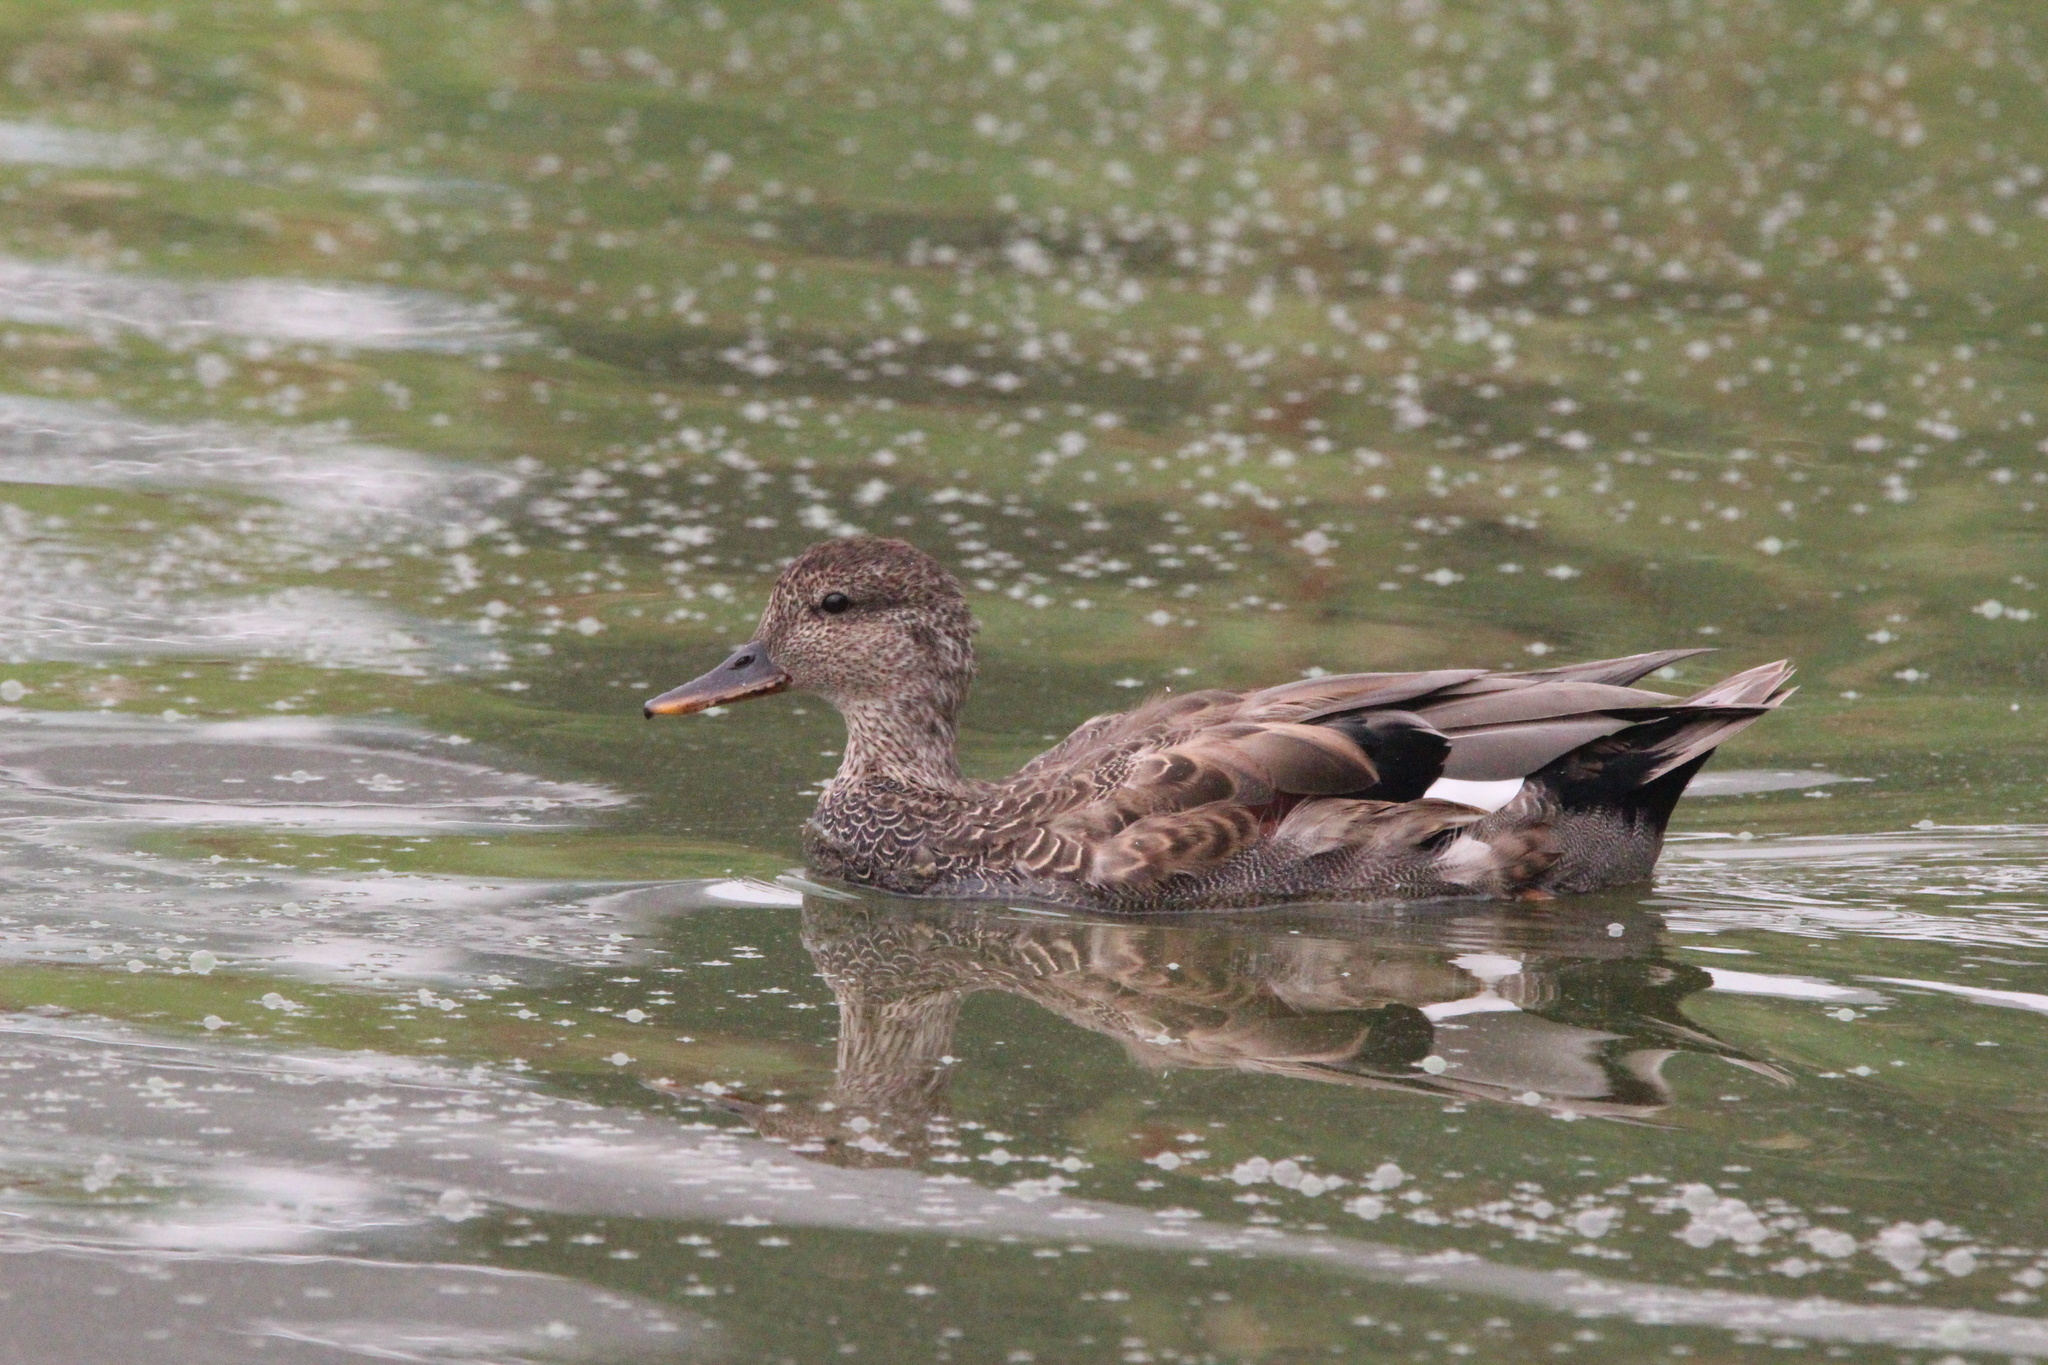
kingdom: Animalia
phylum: Chordata
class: Aves
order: Anseriformes
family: Anatidae
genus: Mareca
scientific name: Mareca strepera
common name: Gadwall
